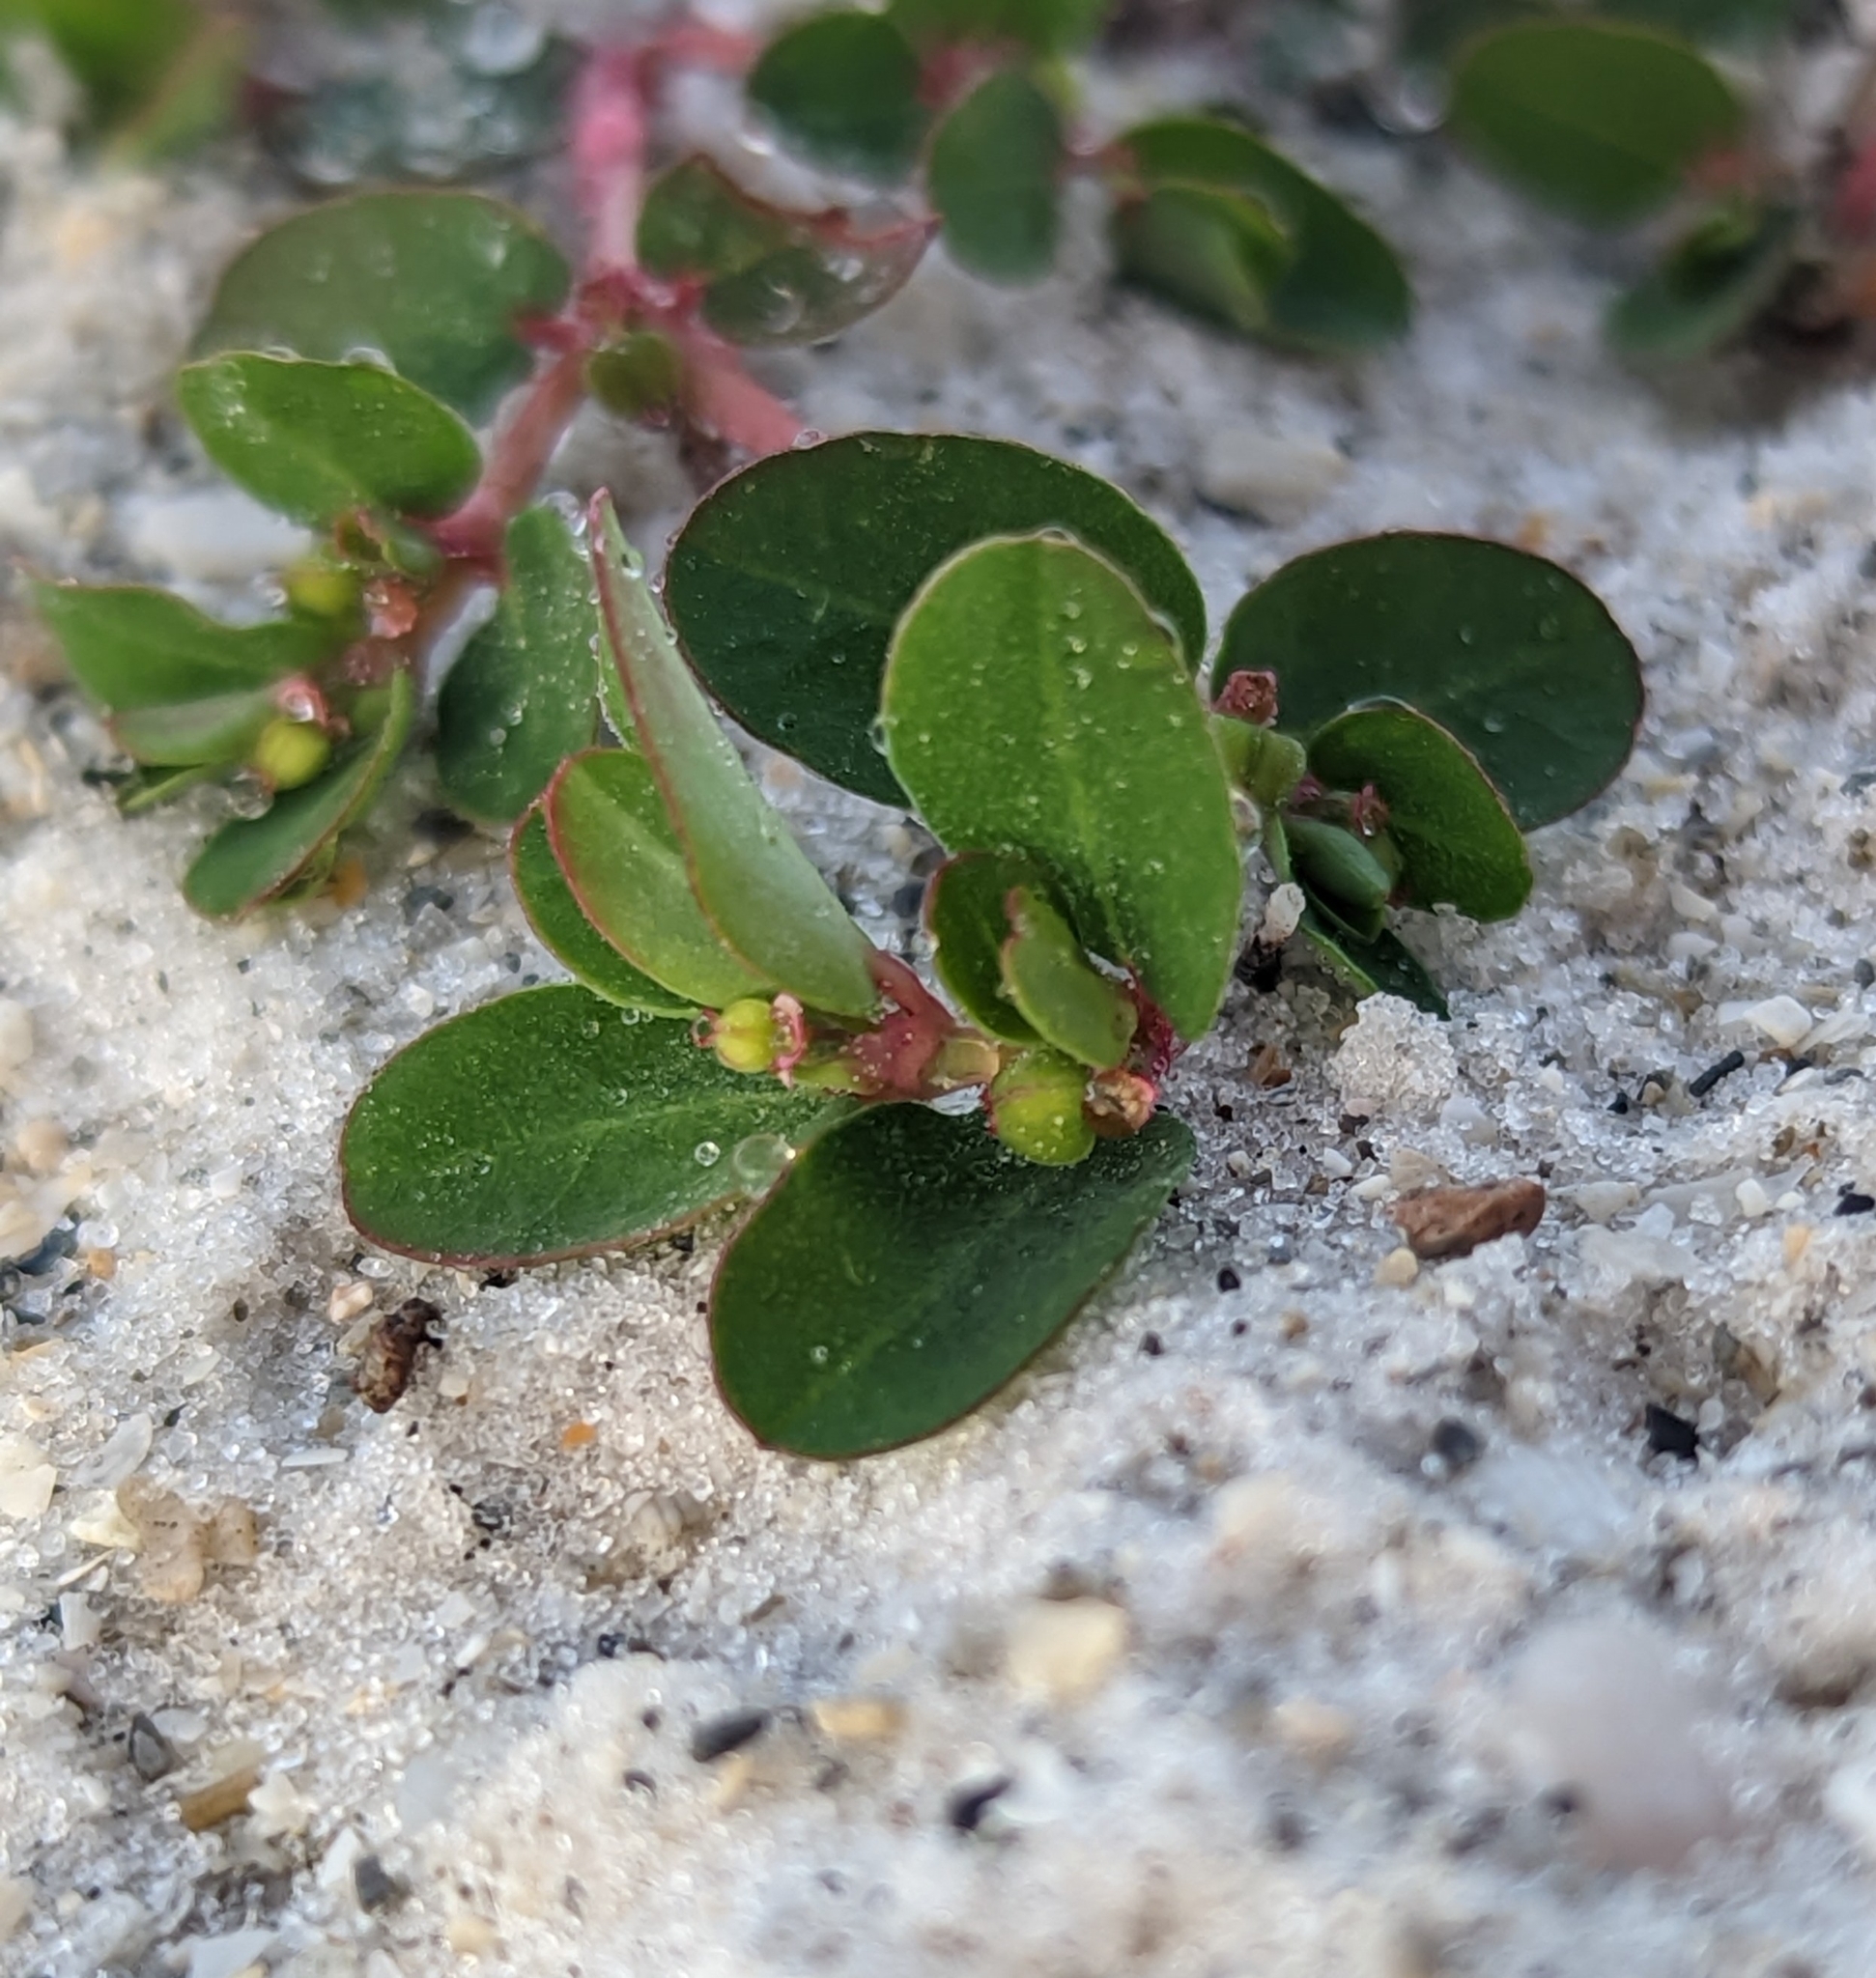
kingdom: Plantae
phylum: Tracheophyta
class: Magnoliopsida
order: Malpighiales
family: Euphorbiaceae
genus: Euphorbia
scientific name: Euphorbia blodgettii
